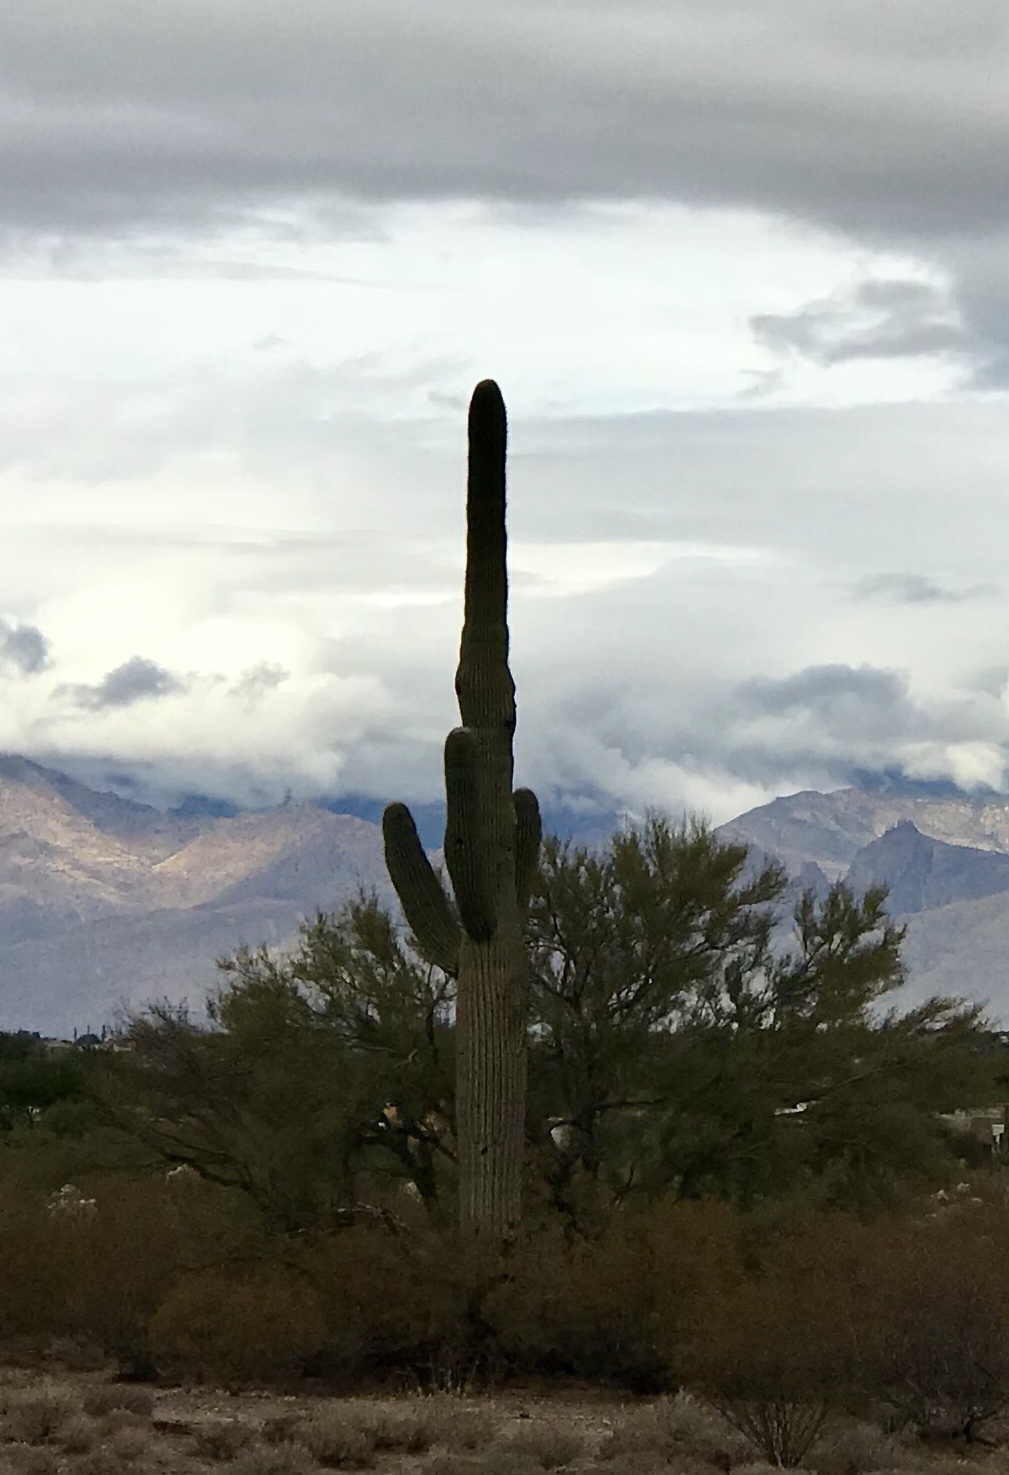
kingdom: Plantae
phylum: Tracheophyta
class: Magnoliopsida
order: Caryophyllales
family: Cactaceae
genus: Carnegiea
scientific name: Carnegiea gigantea
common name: Saguaro
